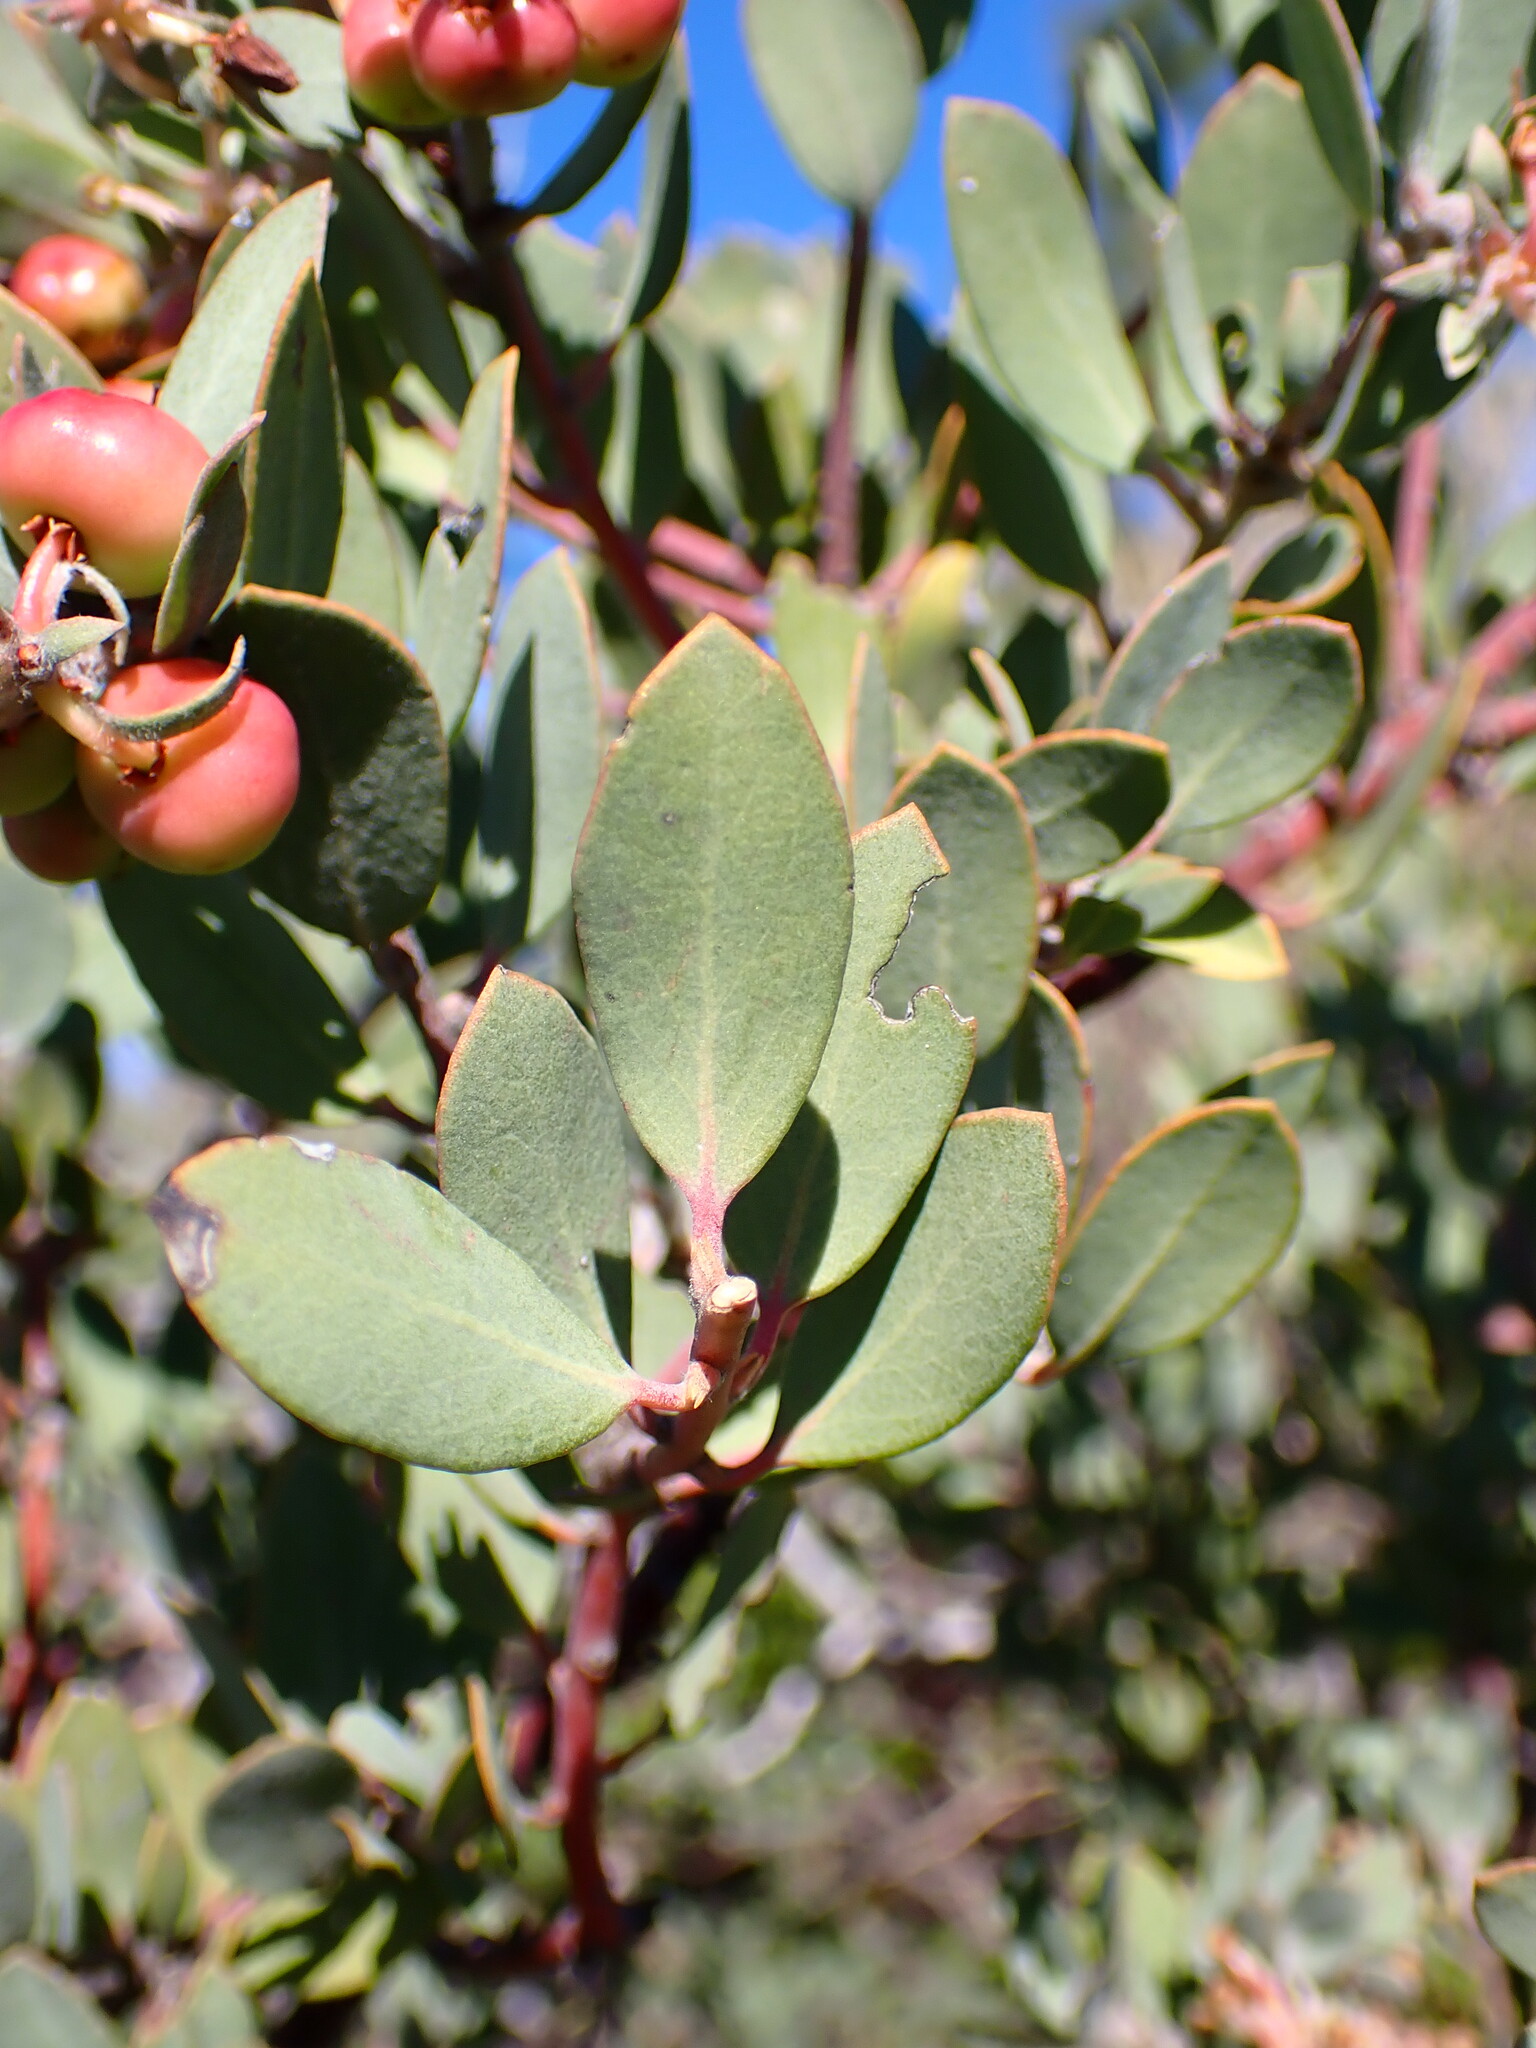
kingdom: Plantae
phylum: Tracheophyta
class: Magnoliopsida
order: Ericales
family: Ericaceae
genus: Arctostaphylos
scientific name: Arctostaphylos silvicola
